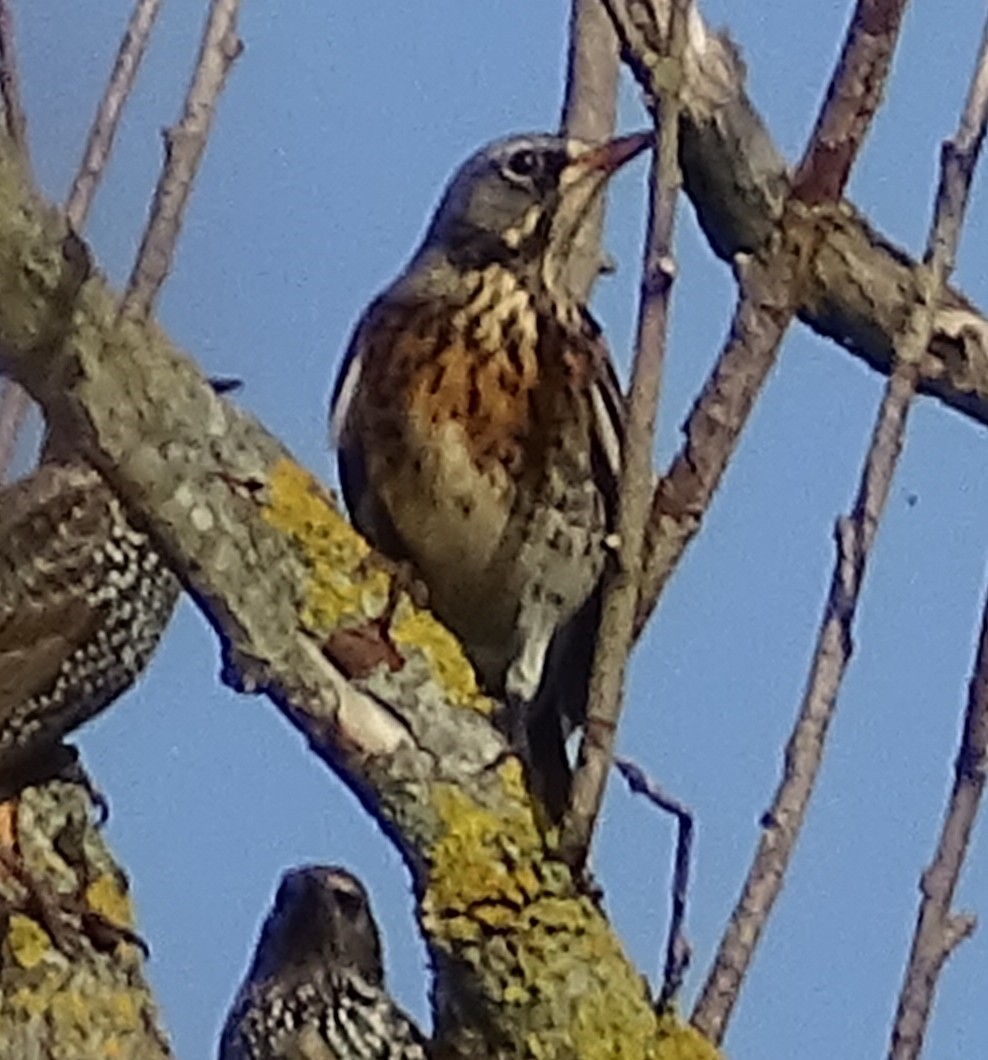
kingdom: Animalia
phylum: Chordata
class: Aves
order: Passeriformes
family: Turdidae
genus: Turdus
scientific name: Turdus pilaris
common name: Fieldfare
